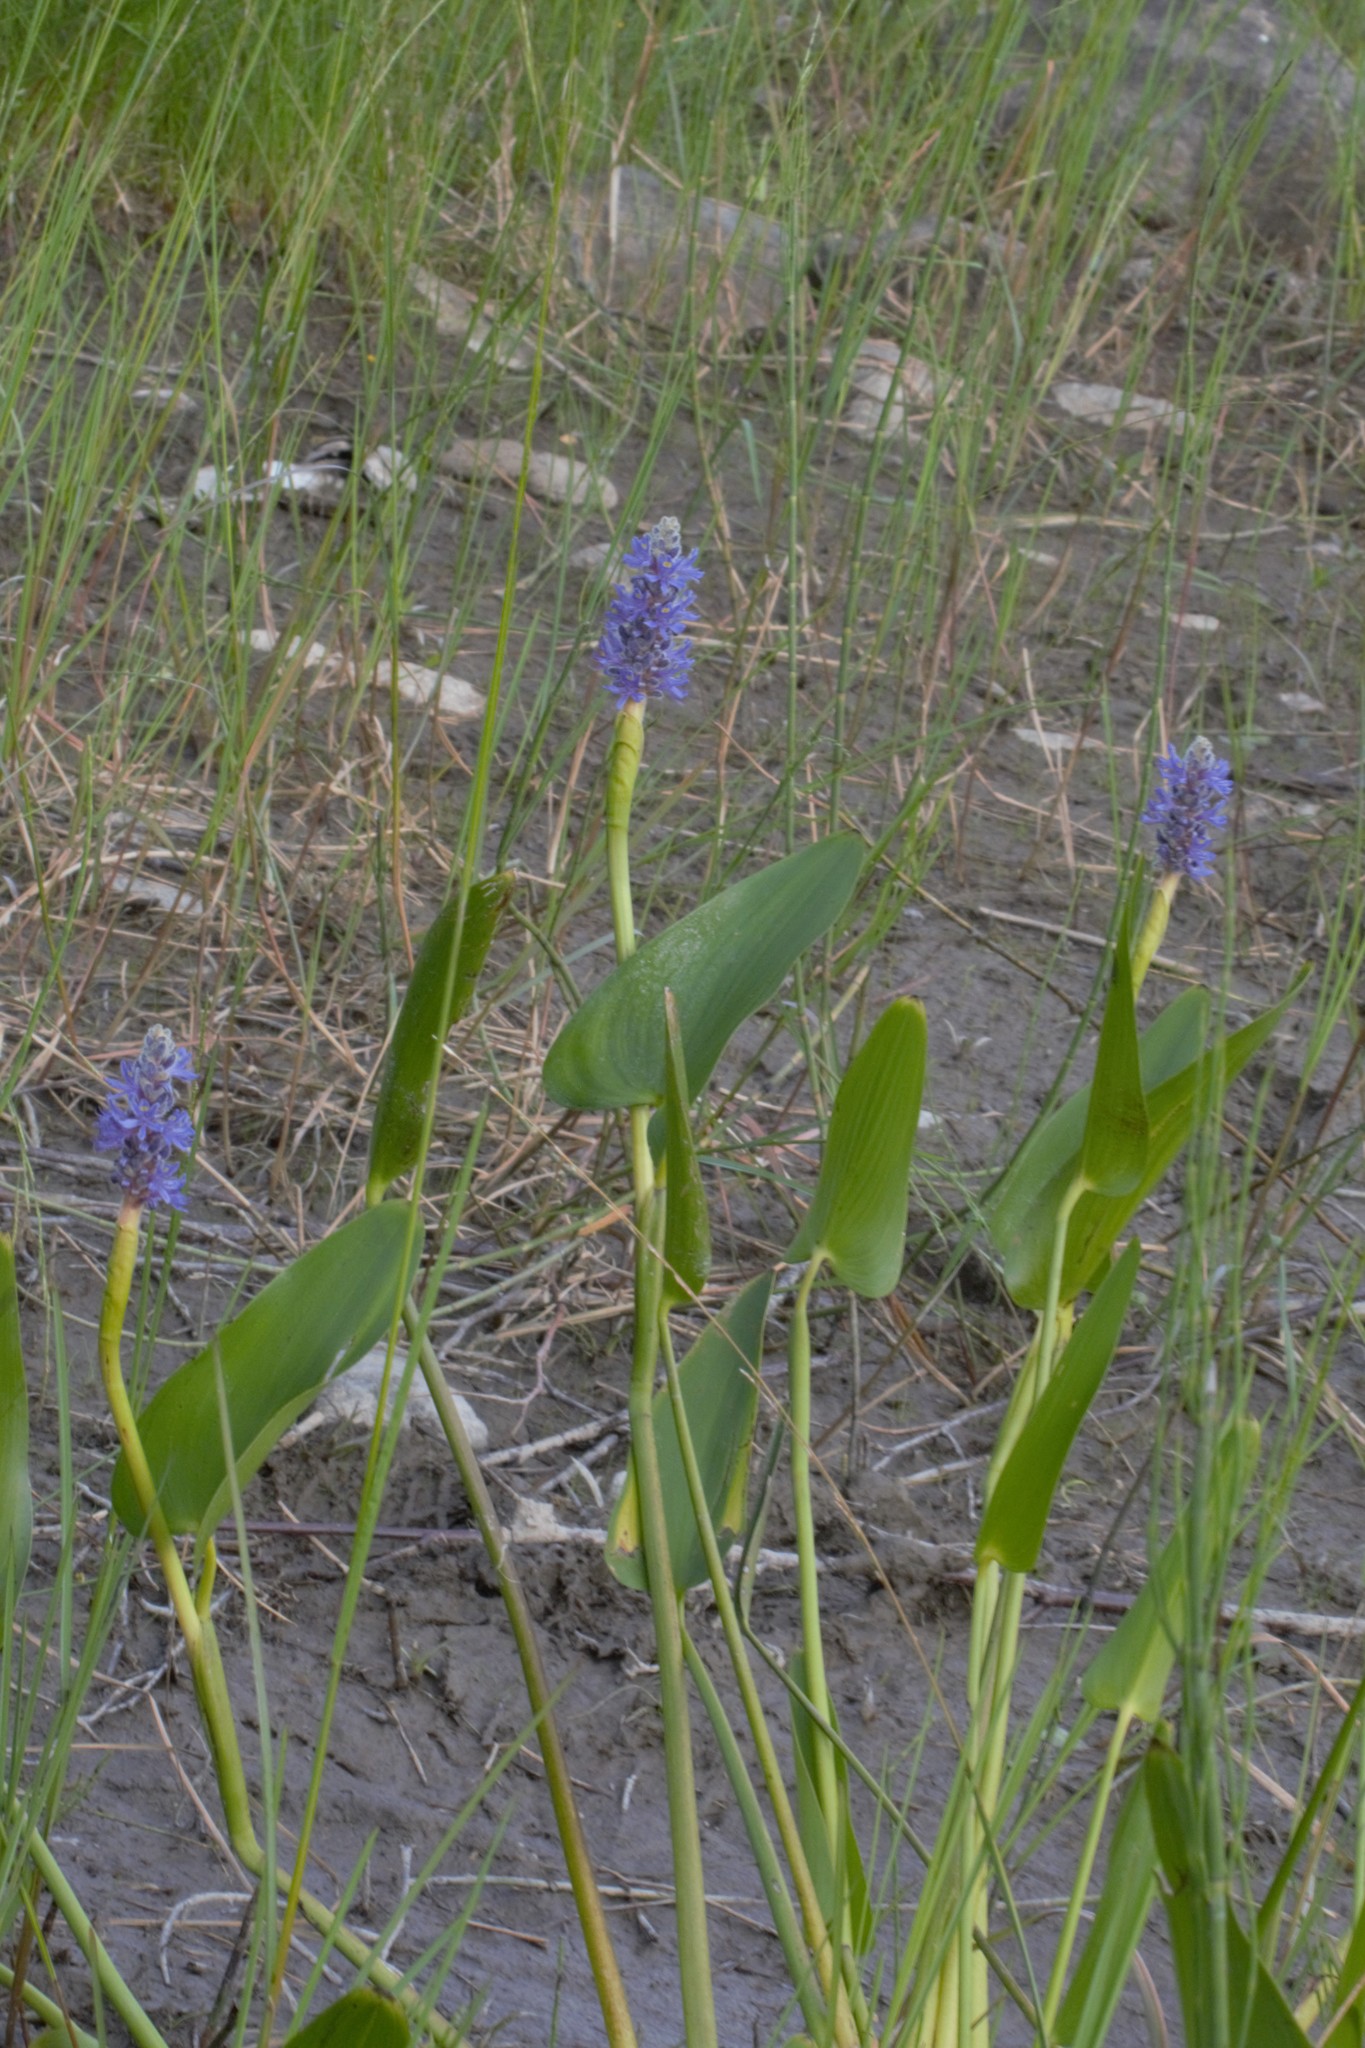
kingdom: Plantae
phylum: Tracheophyta
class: Liliopsida
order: Commelinales
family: Pontederiaceae
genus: Pontederia
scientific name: Pontederia cordata
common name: Pickerelweed
